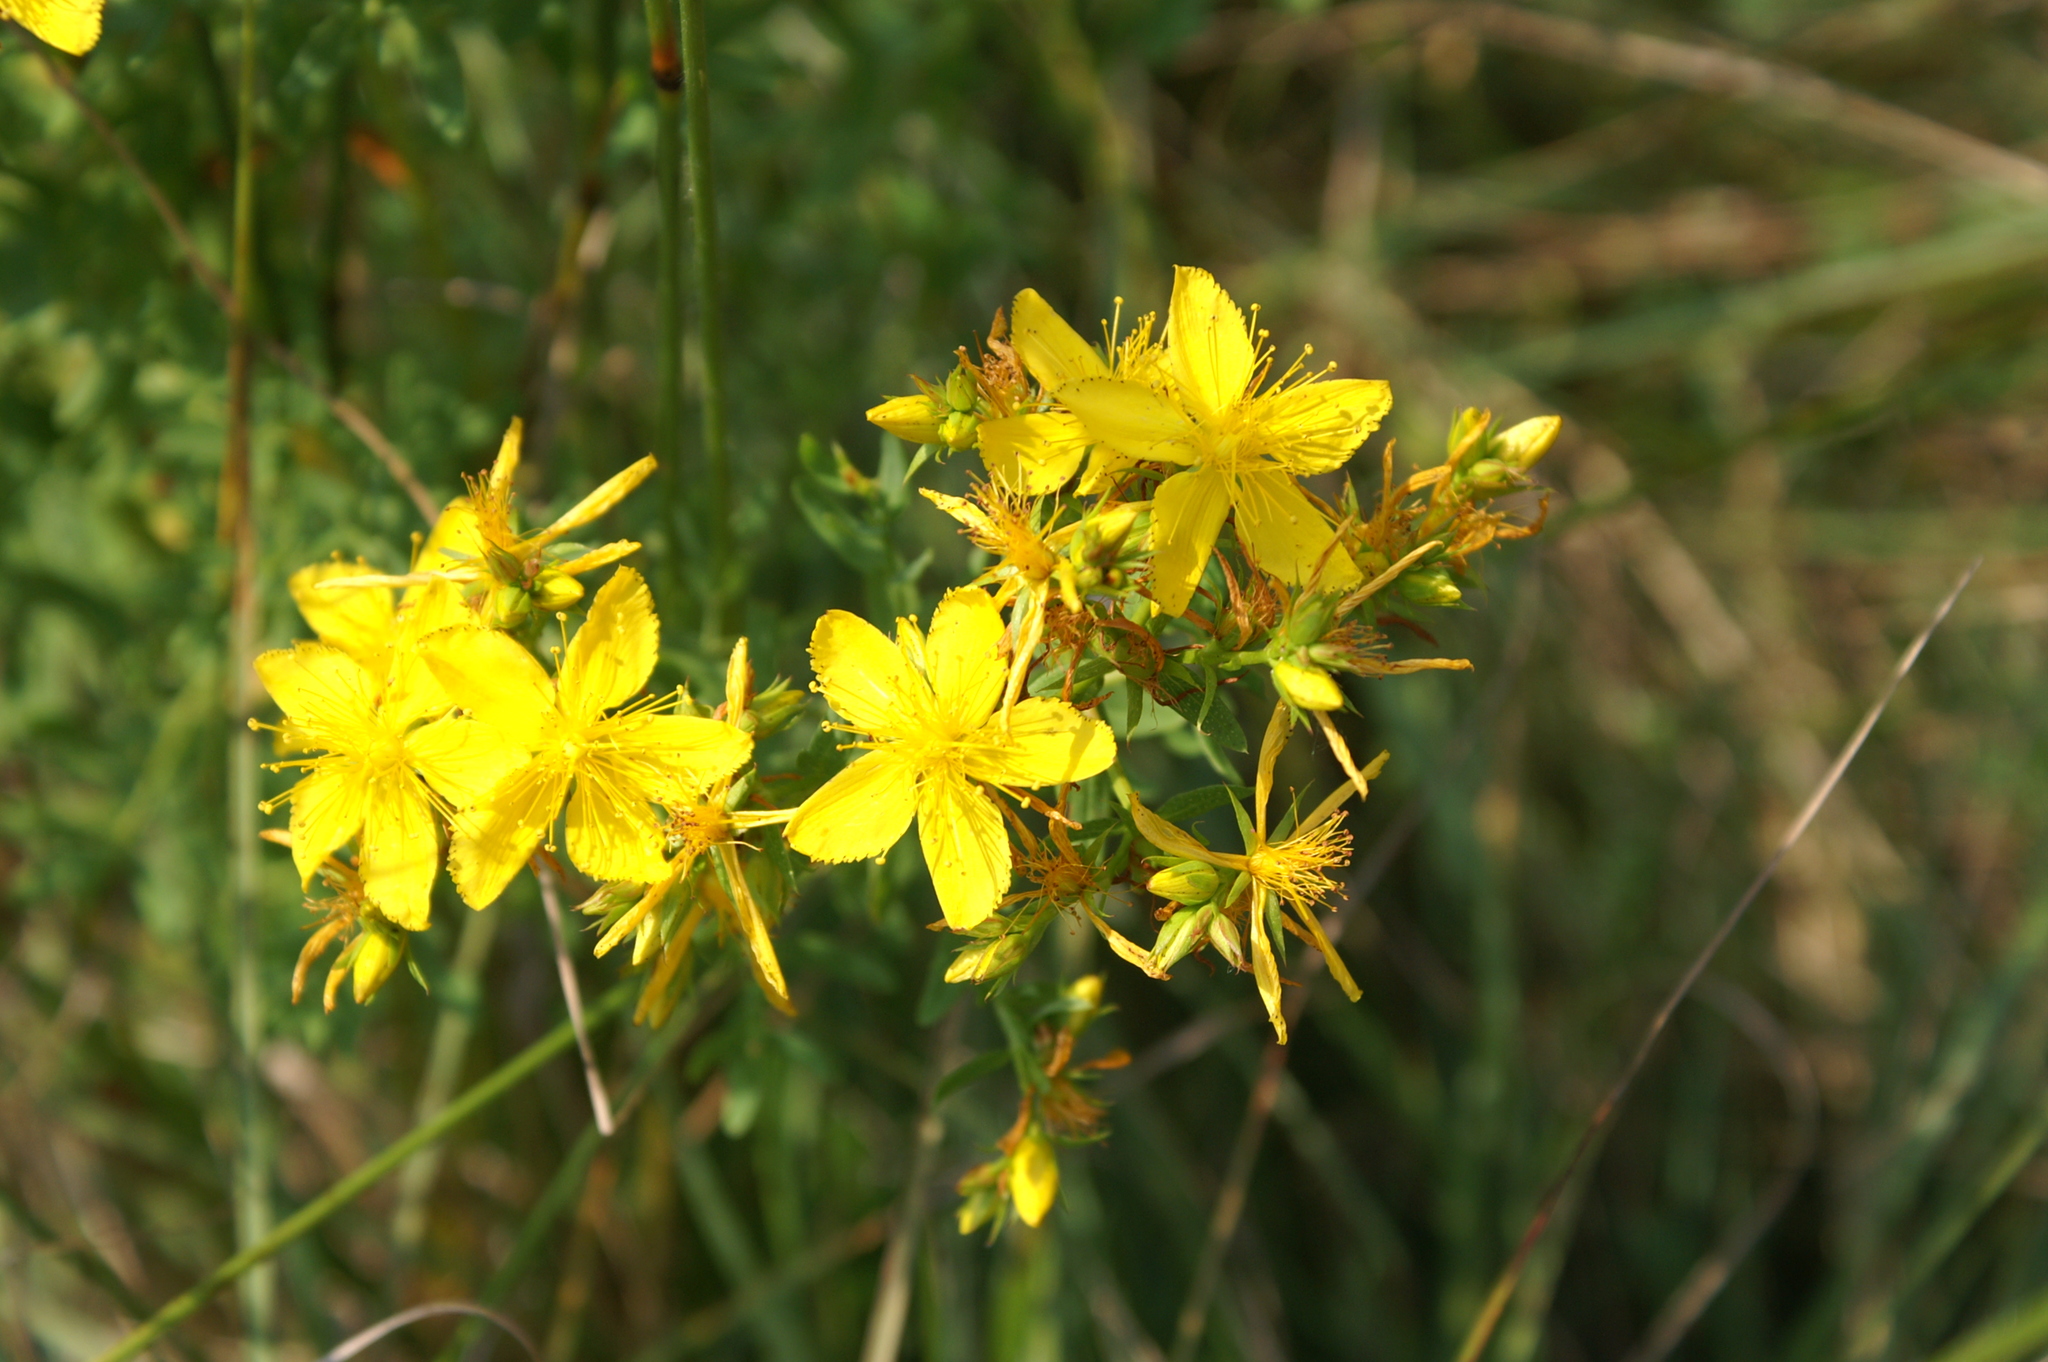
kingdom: Plantae
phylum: Tracheophyta
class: Magnoliopsida
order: Malpighiales
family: Hypericaceae
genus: Hypericum
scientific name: Hypericum perforatum
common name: Common st. johnswort
